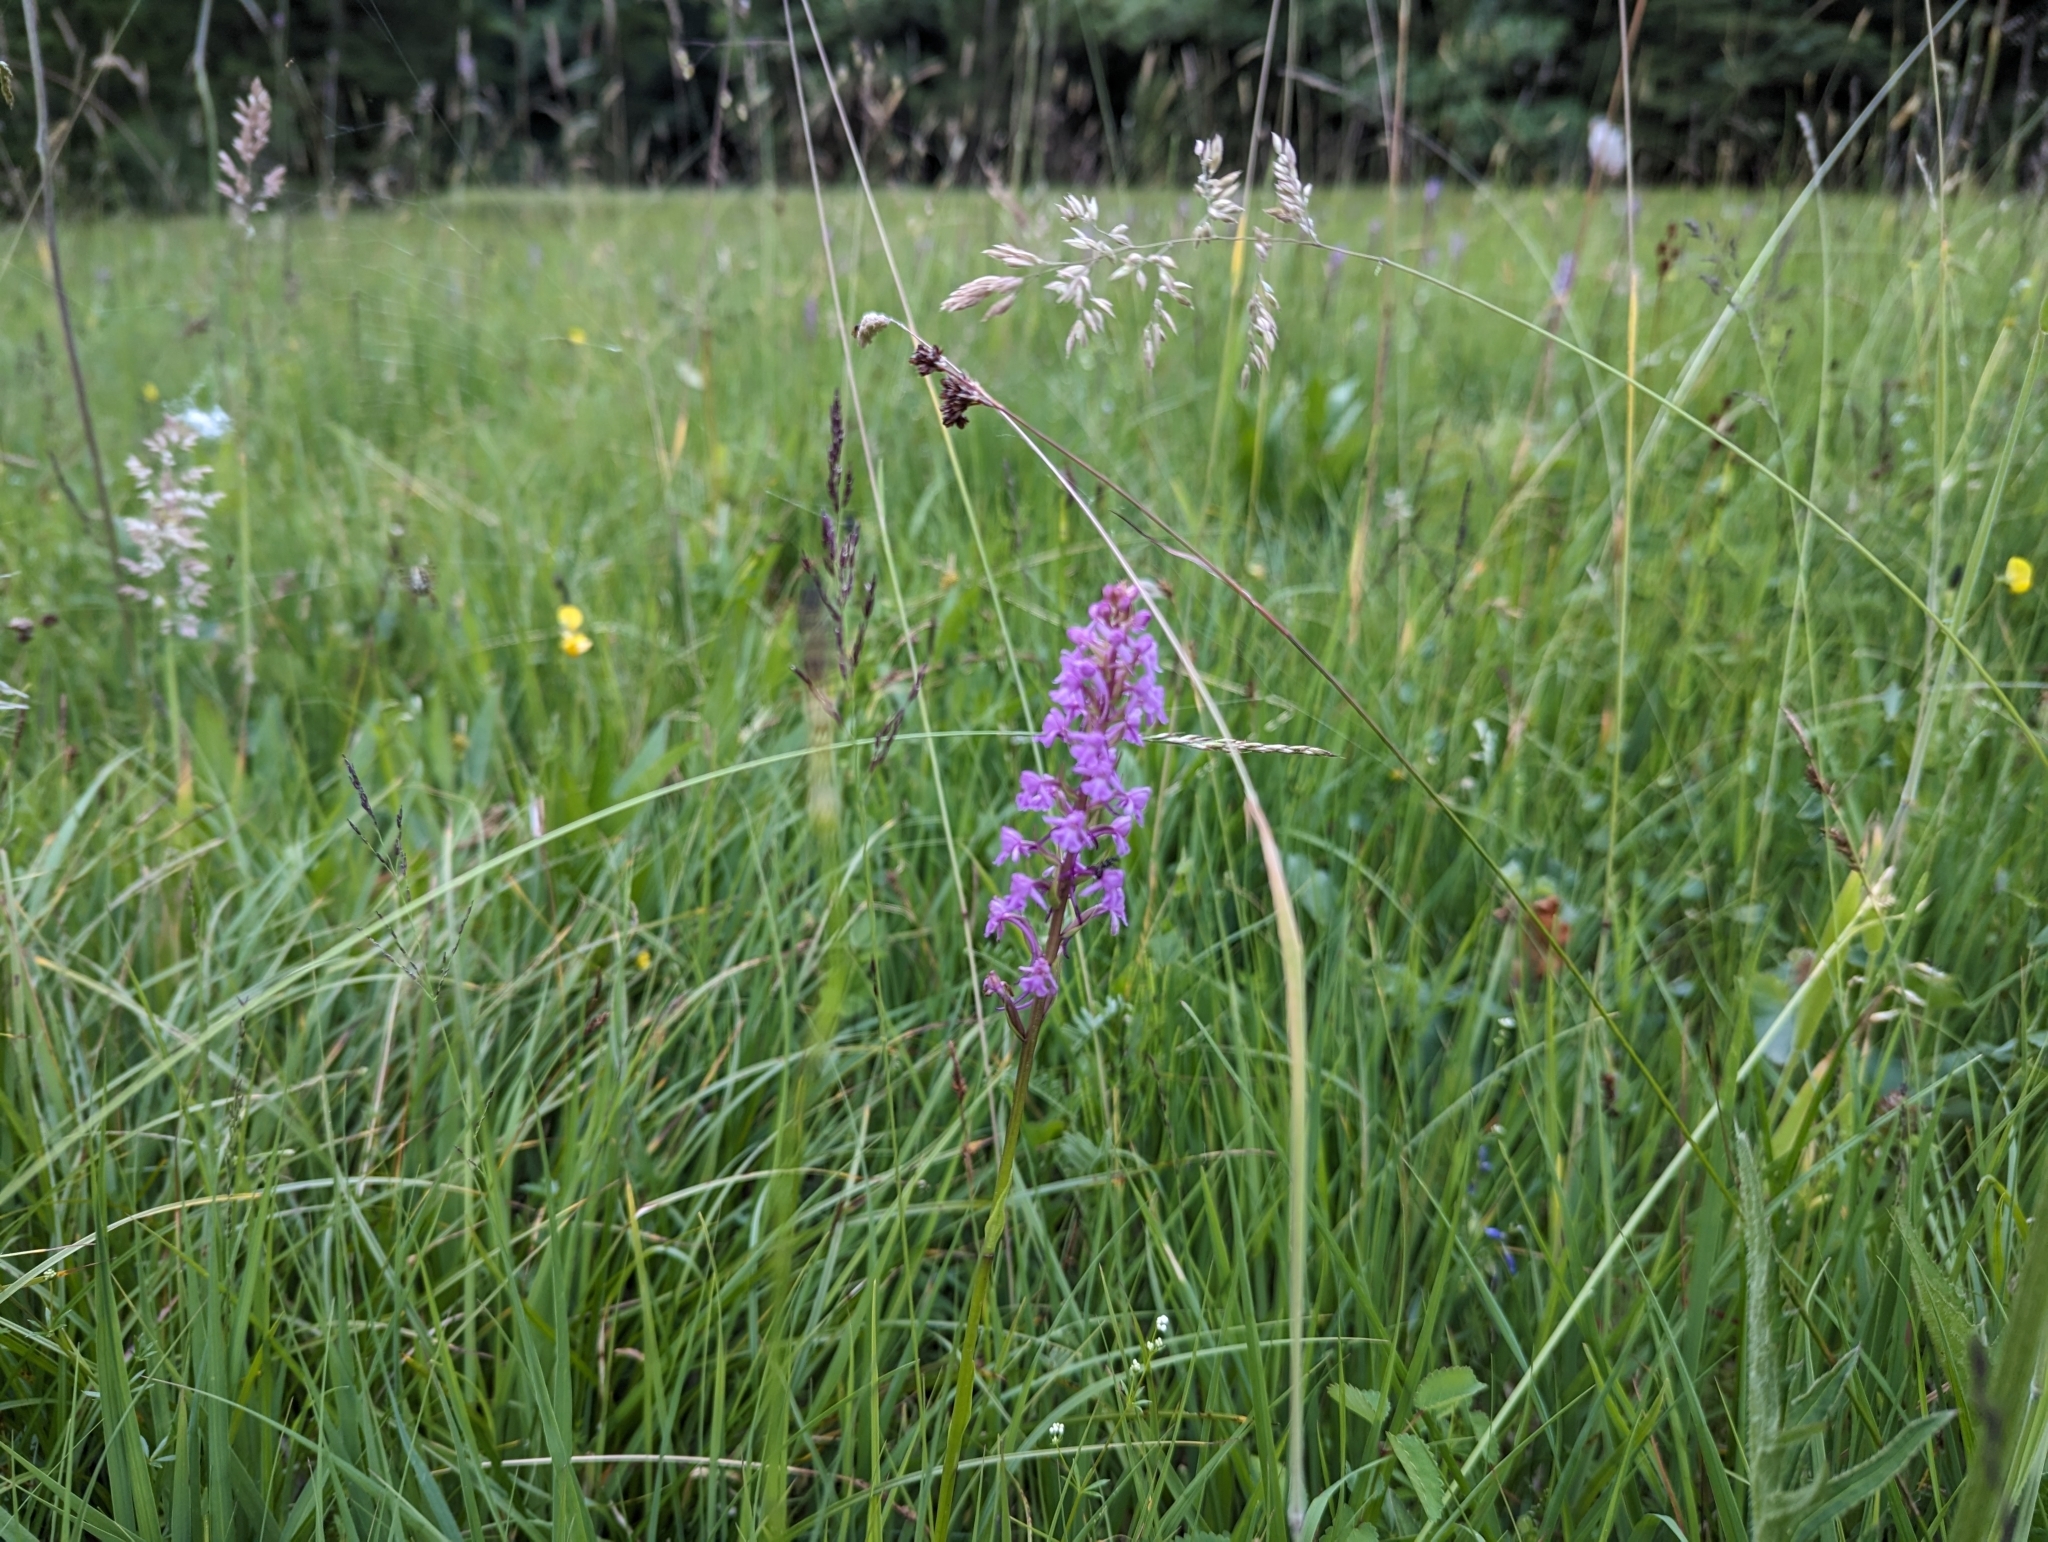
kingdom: Plantae
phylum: Tracheophyta
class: Liliopsida
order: Asparagales
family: Orchidaceae
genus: Gymnadenia
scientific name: Gymnadenia conopsea
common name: Fragrant orchid
